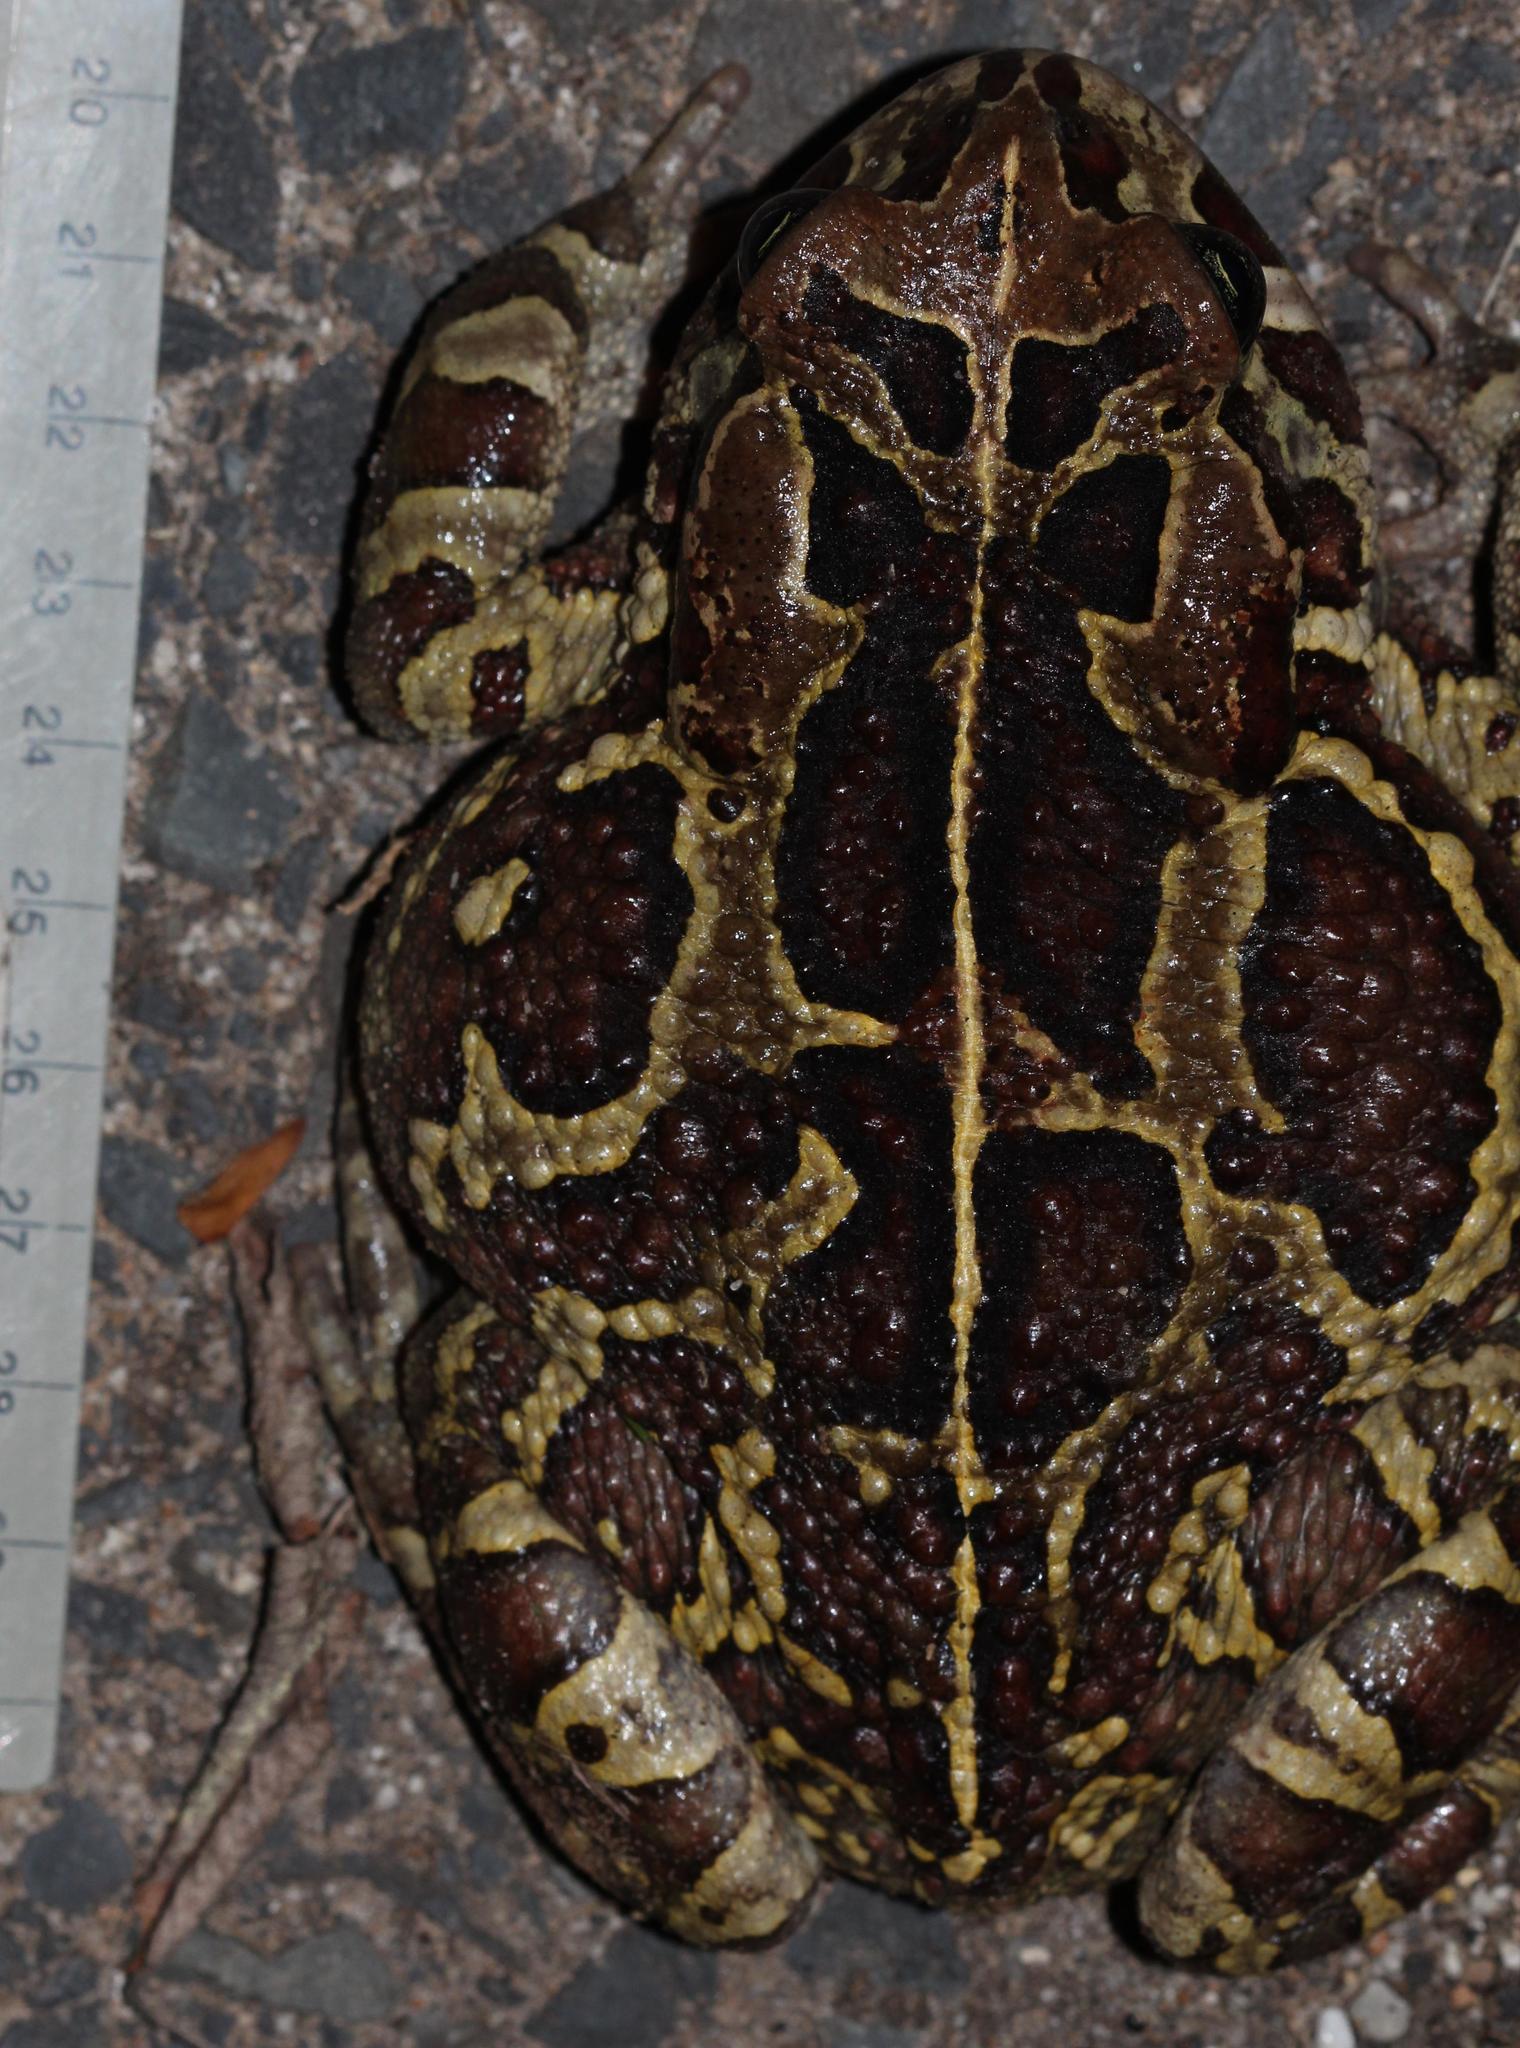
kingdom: Animalia
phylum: Chordata
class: Amphibia
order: Anura
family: Bufonidae
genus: Sclerophrys
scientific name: Sclerophrys pantherina
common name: Panther toad
